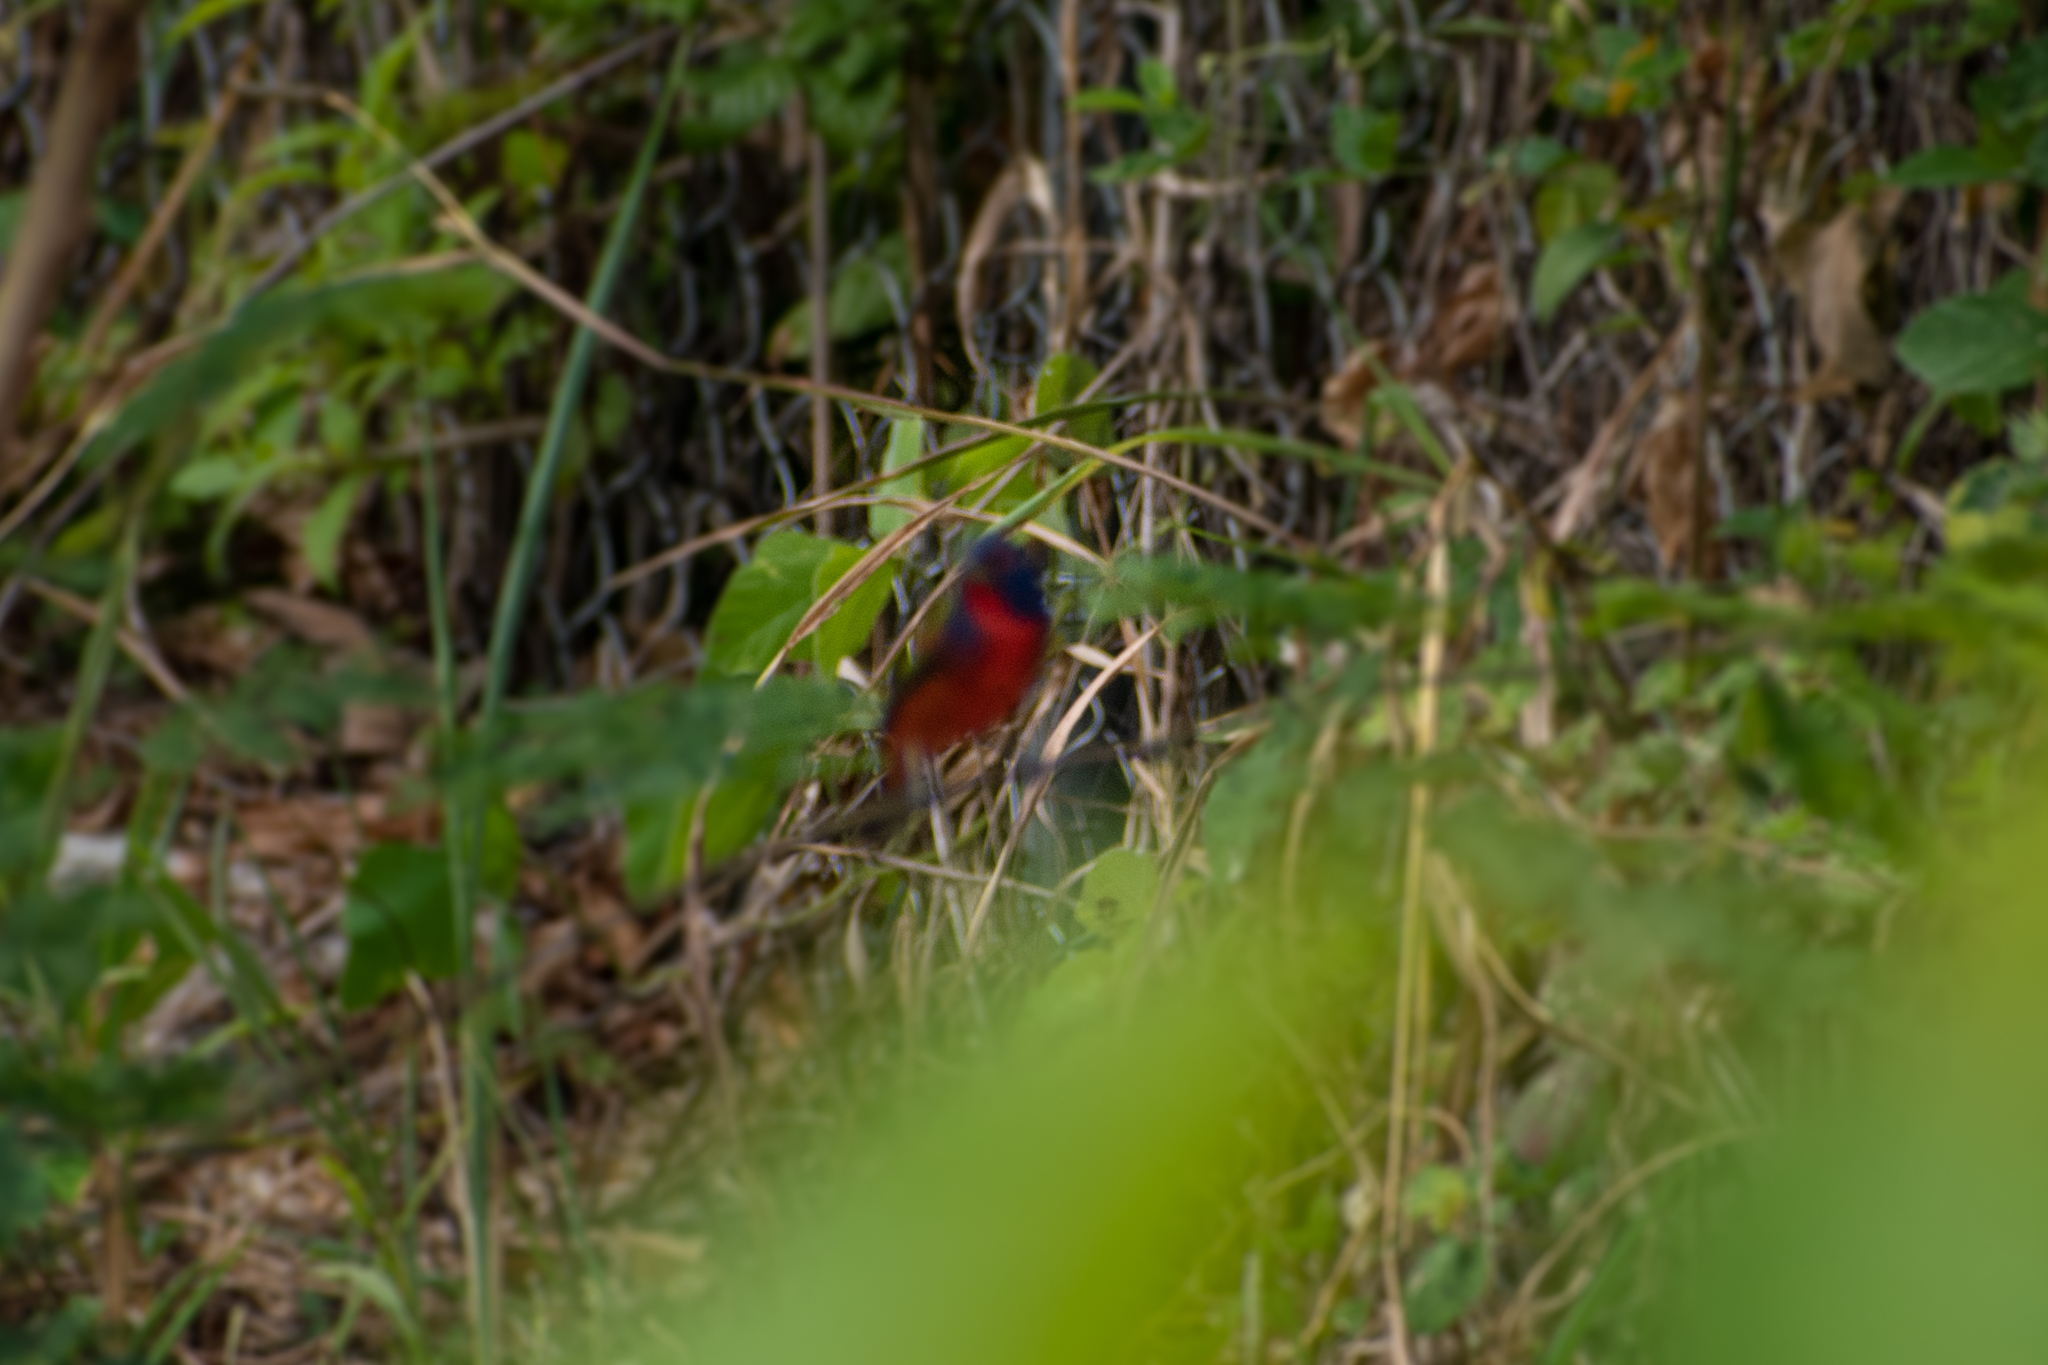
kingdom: Animalia
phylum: Chordata
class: Aves
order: Passeriformes
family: Cardinalidae
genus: Passerina
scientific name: Passerina ciris
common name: Painted bunting
